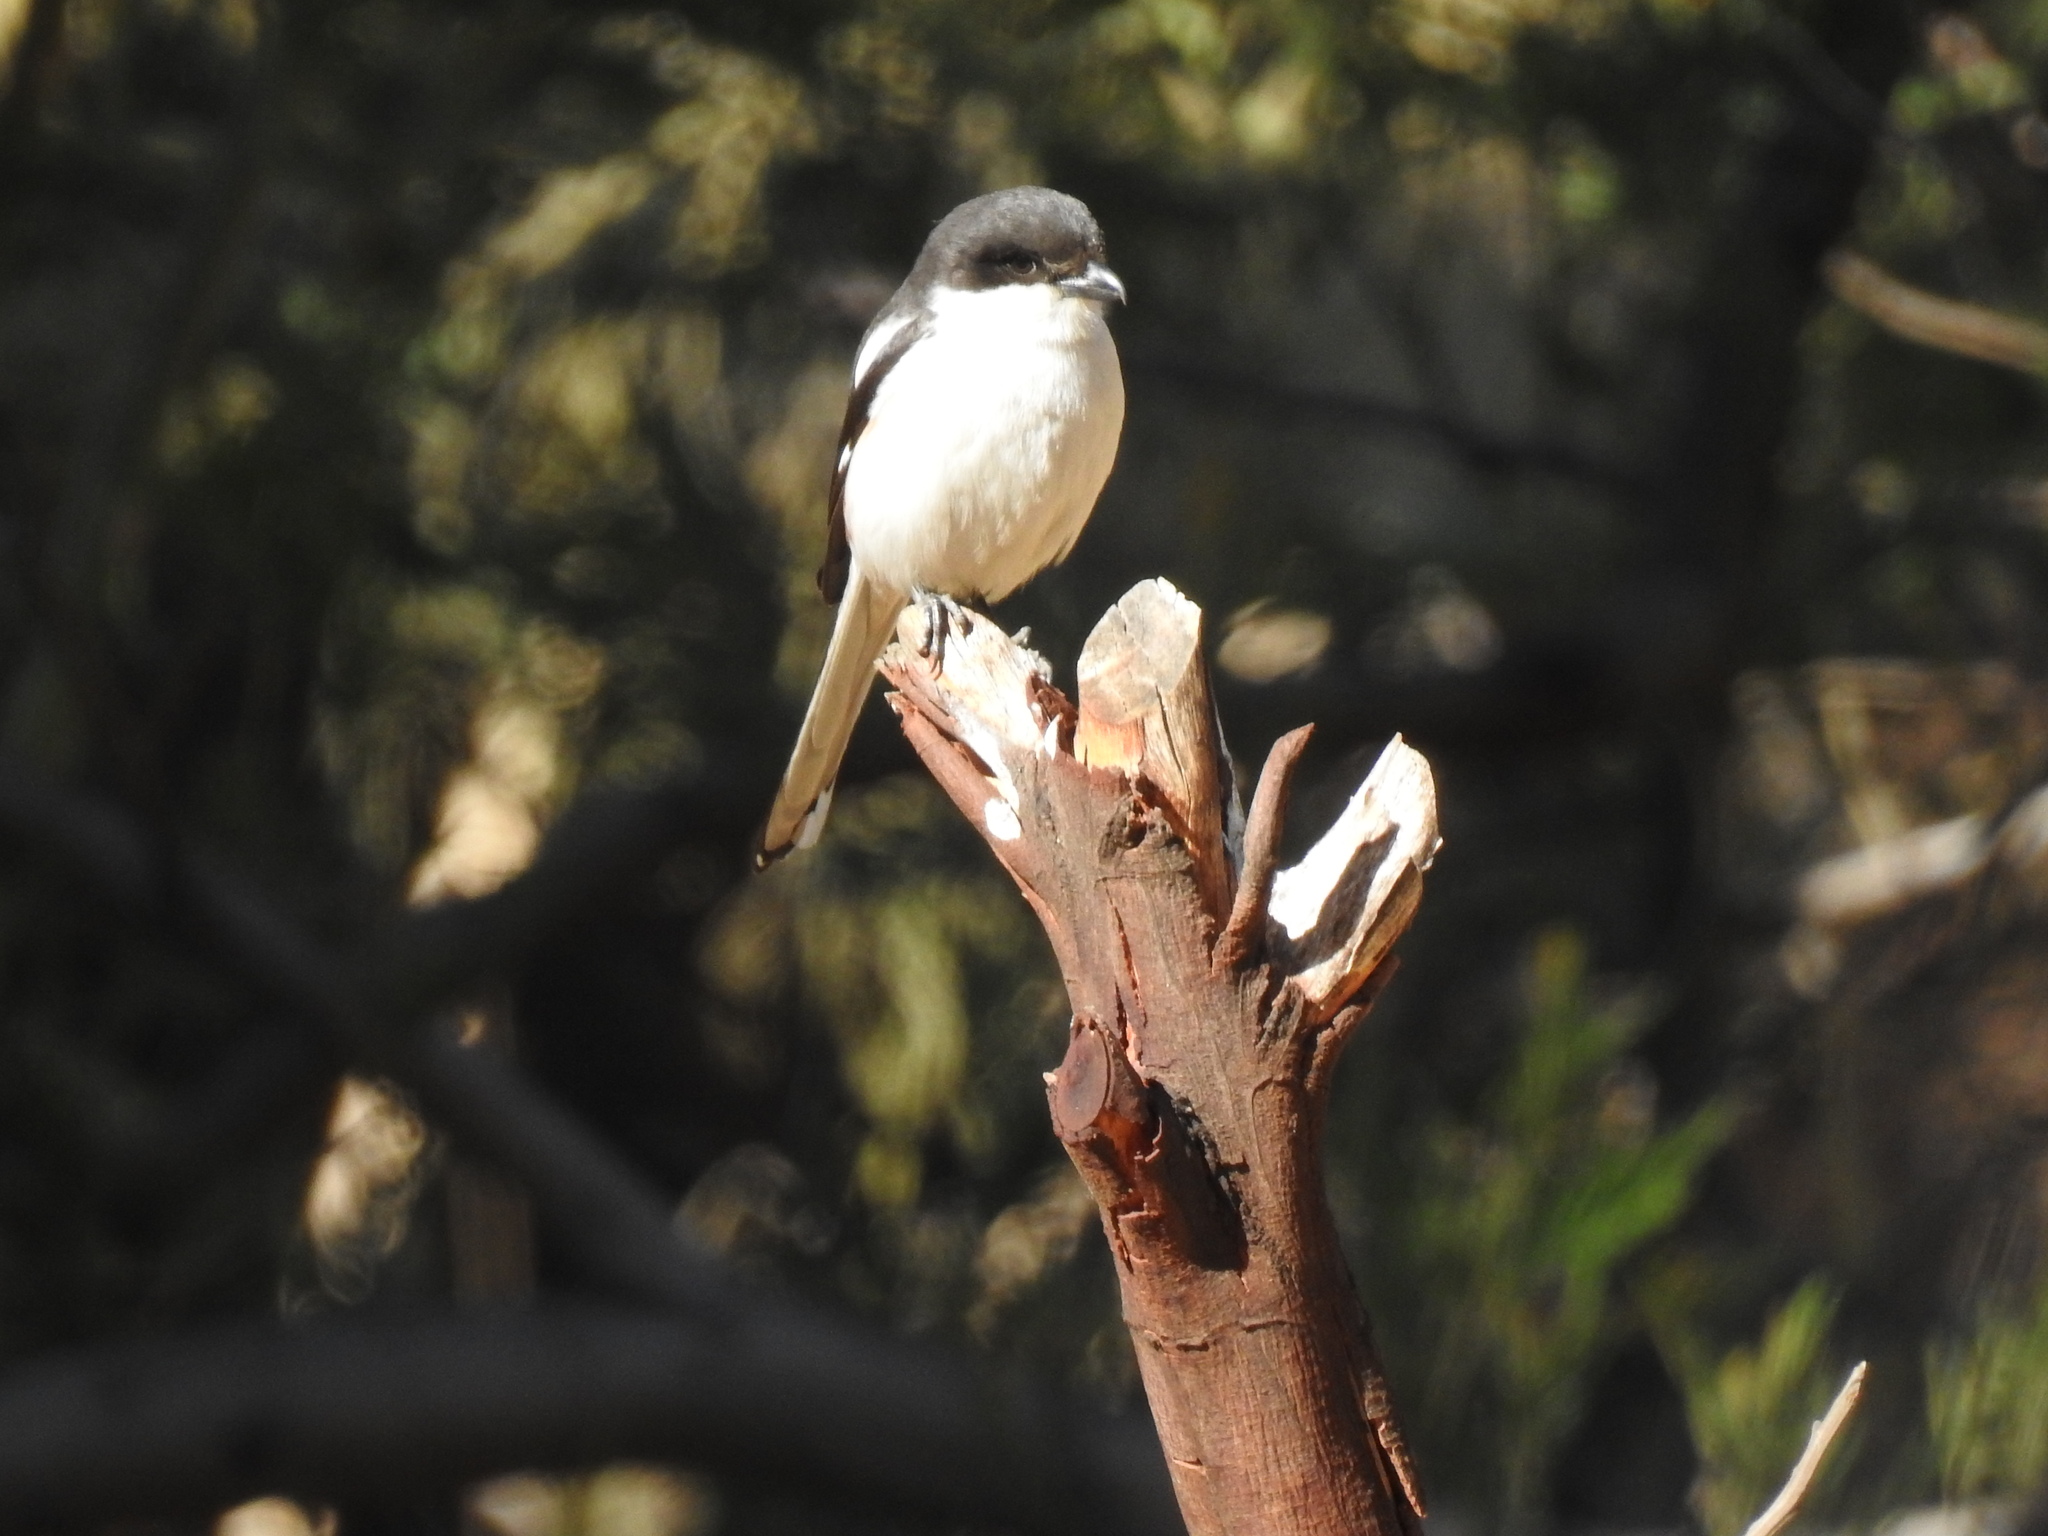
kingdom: Animalia
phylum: Chordata
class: Aves
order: Passeriformes
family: Laniidae
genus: Lanius
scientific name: Lanius collaris
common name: Southern fiscal
